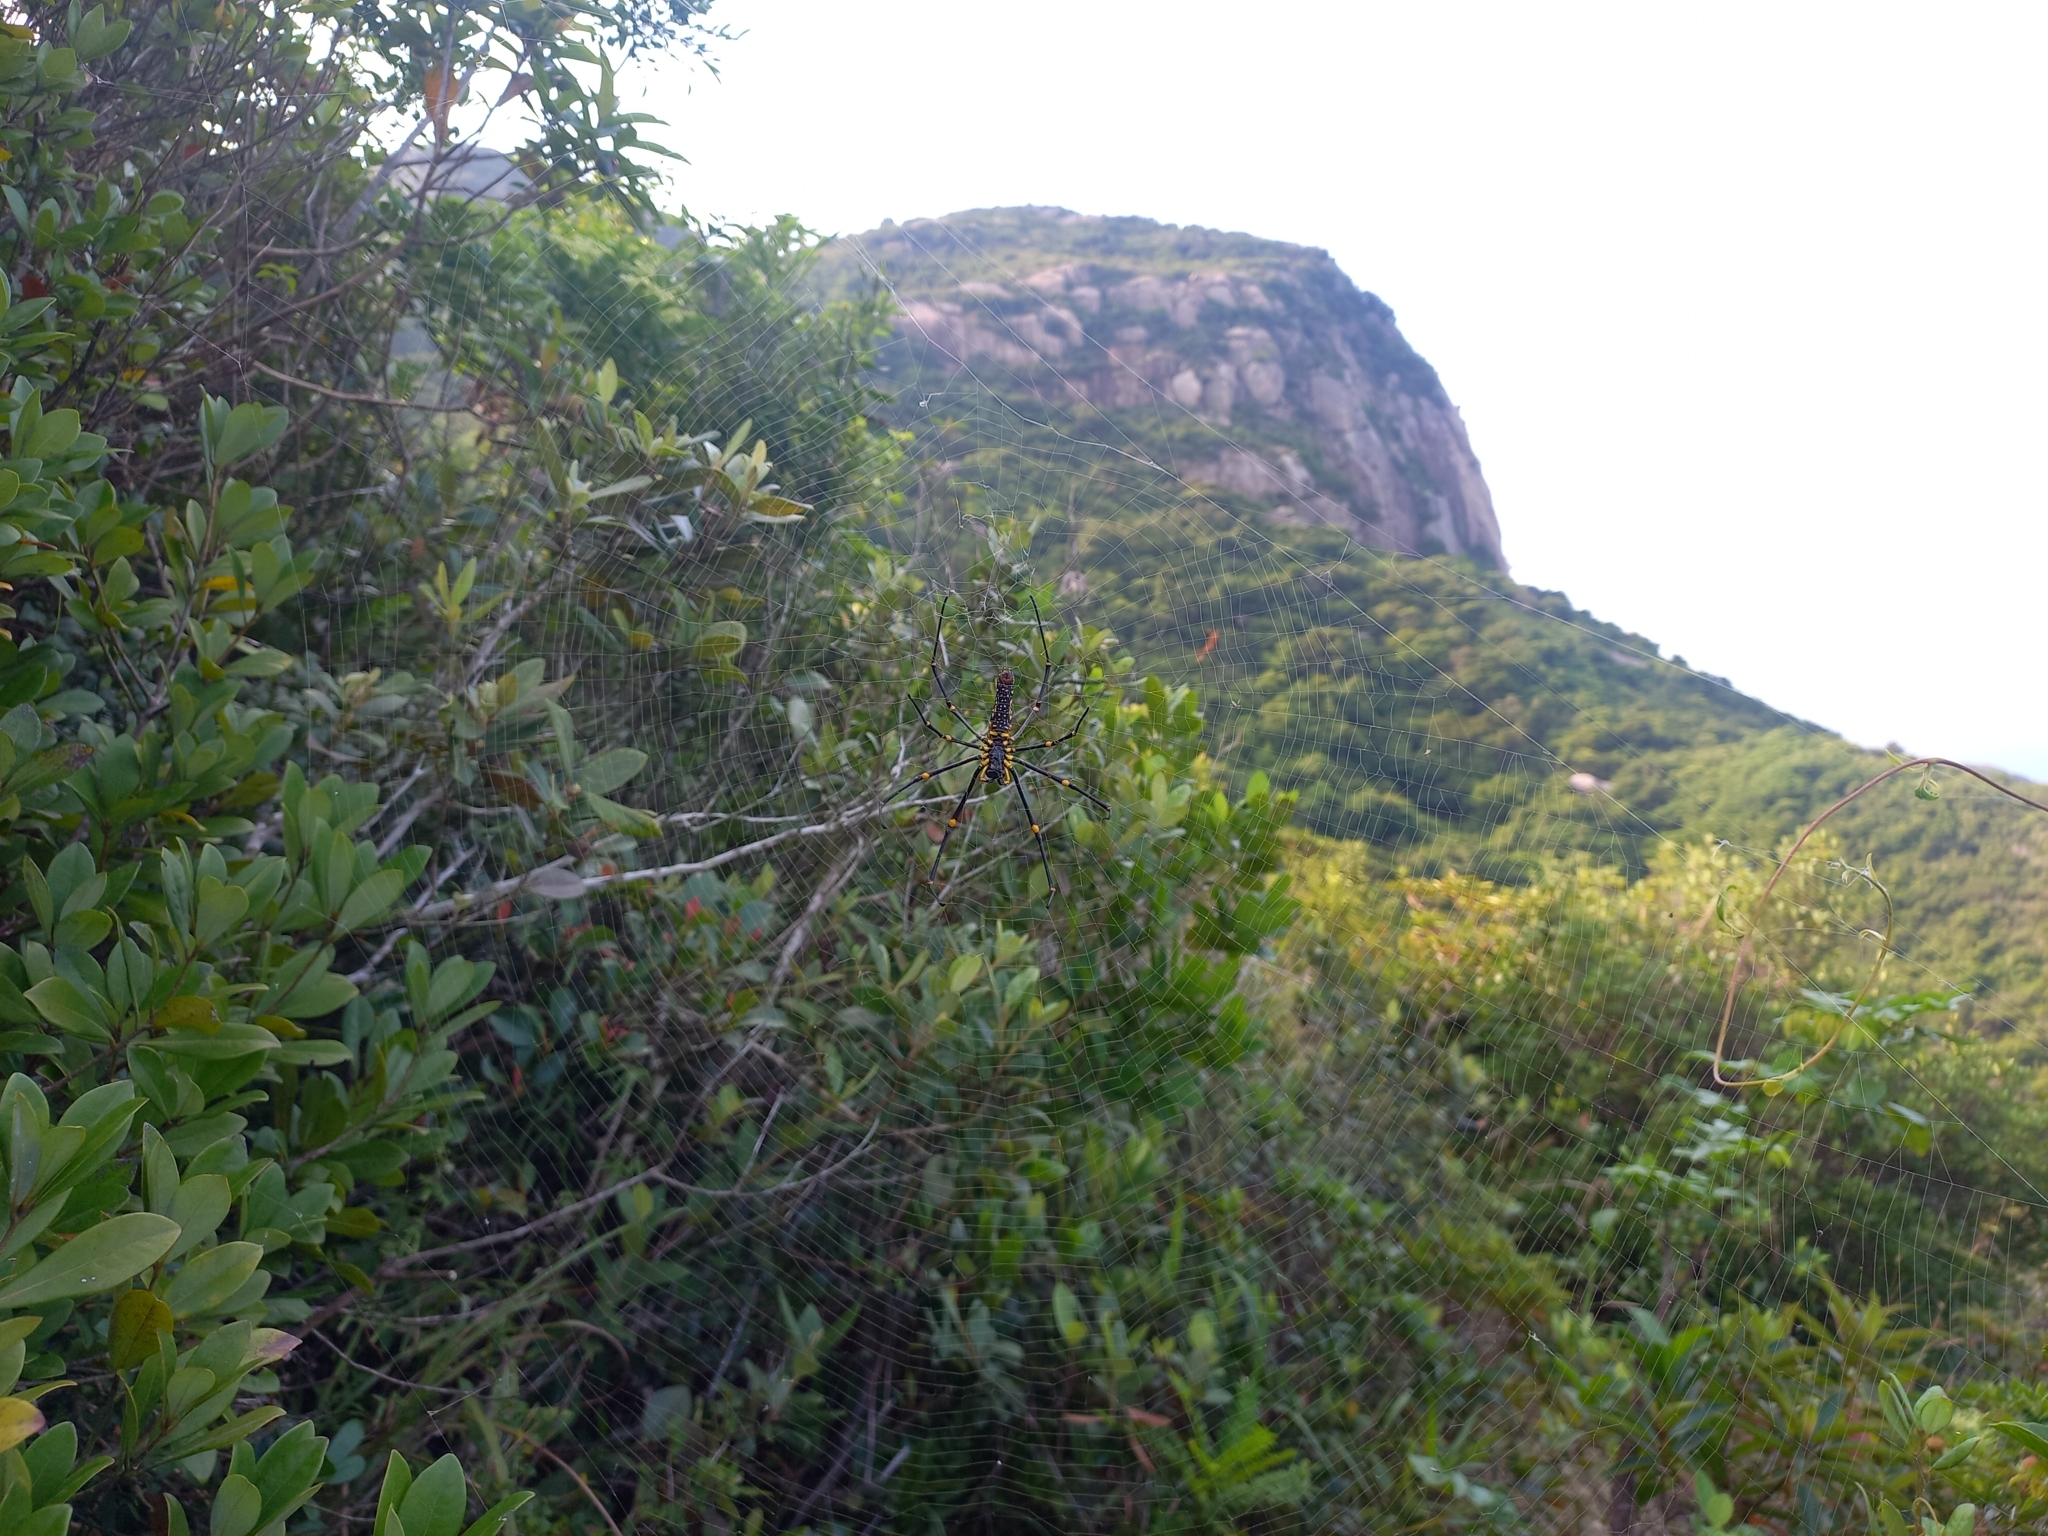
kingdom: Animalia
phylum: Arthropoda
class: Arachnida
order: Araneae
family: Araneidae
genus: Nephila
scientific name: Nephila pilipes
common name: Giant golden orb weaver
